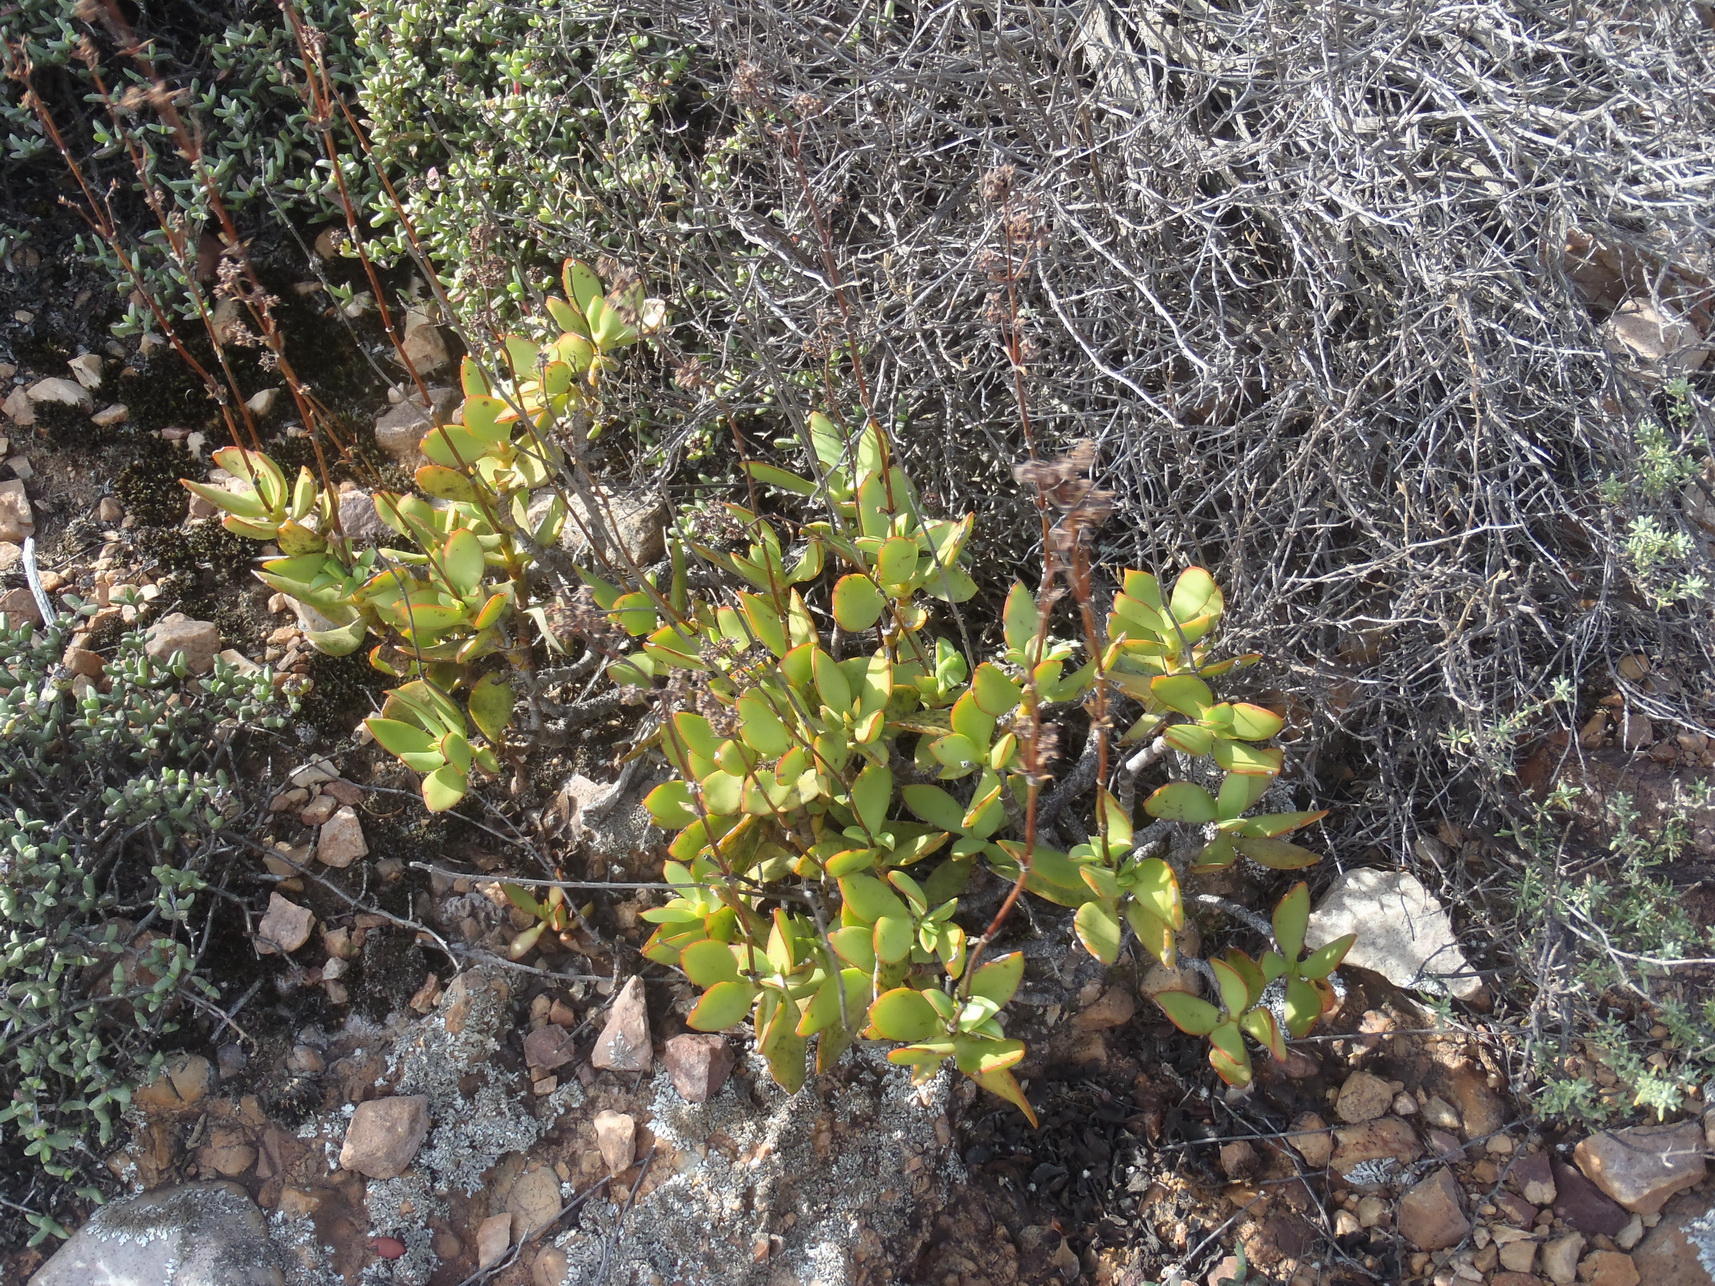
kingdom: Plantae
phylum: Tracheophyta
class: Magnoliopsida
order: Saxifragales
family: Crassulaceae
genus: Crassula
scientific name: Crassula cultrata
